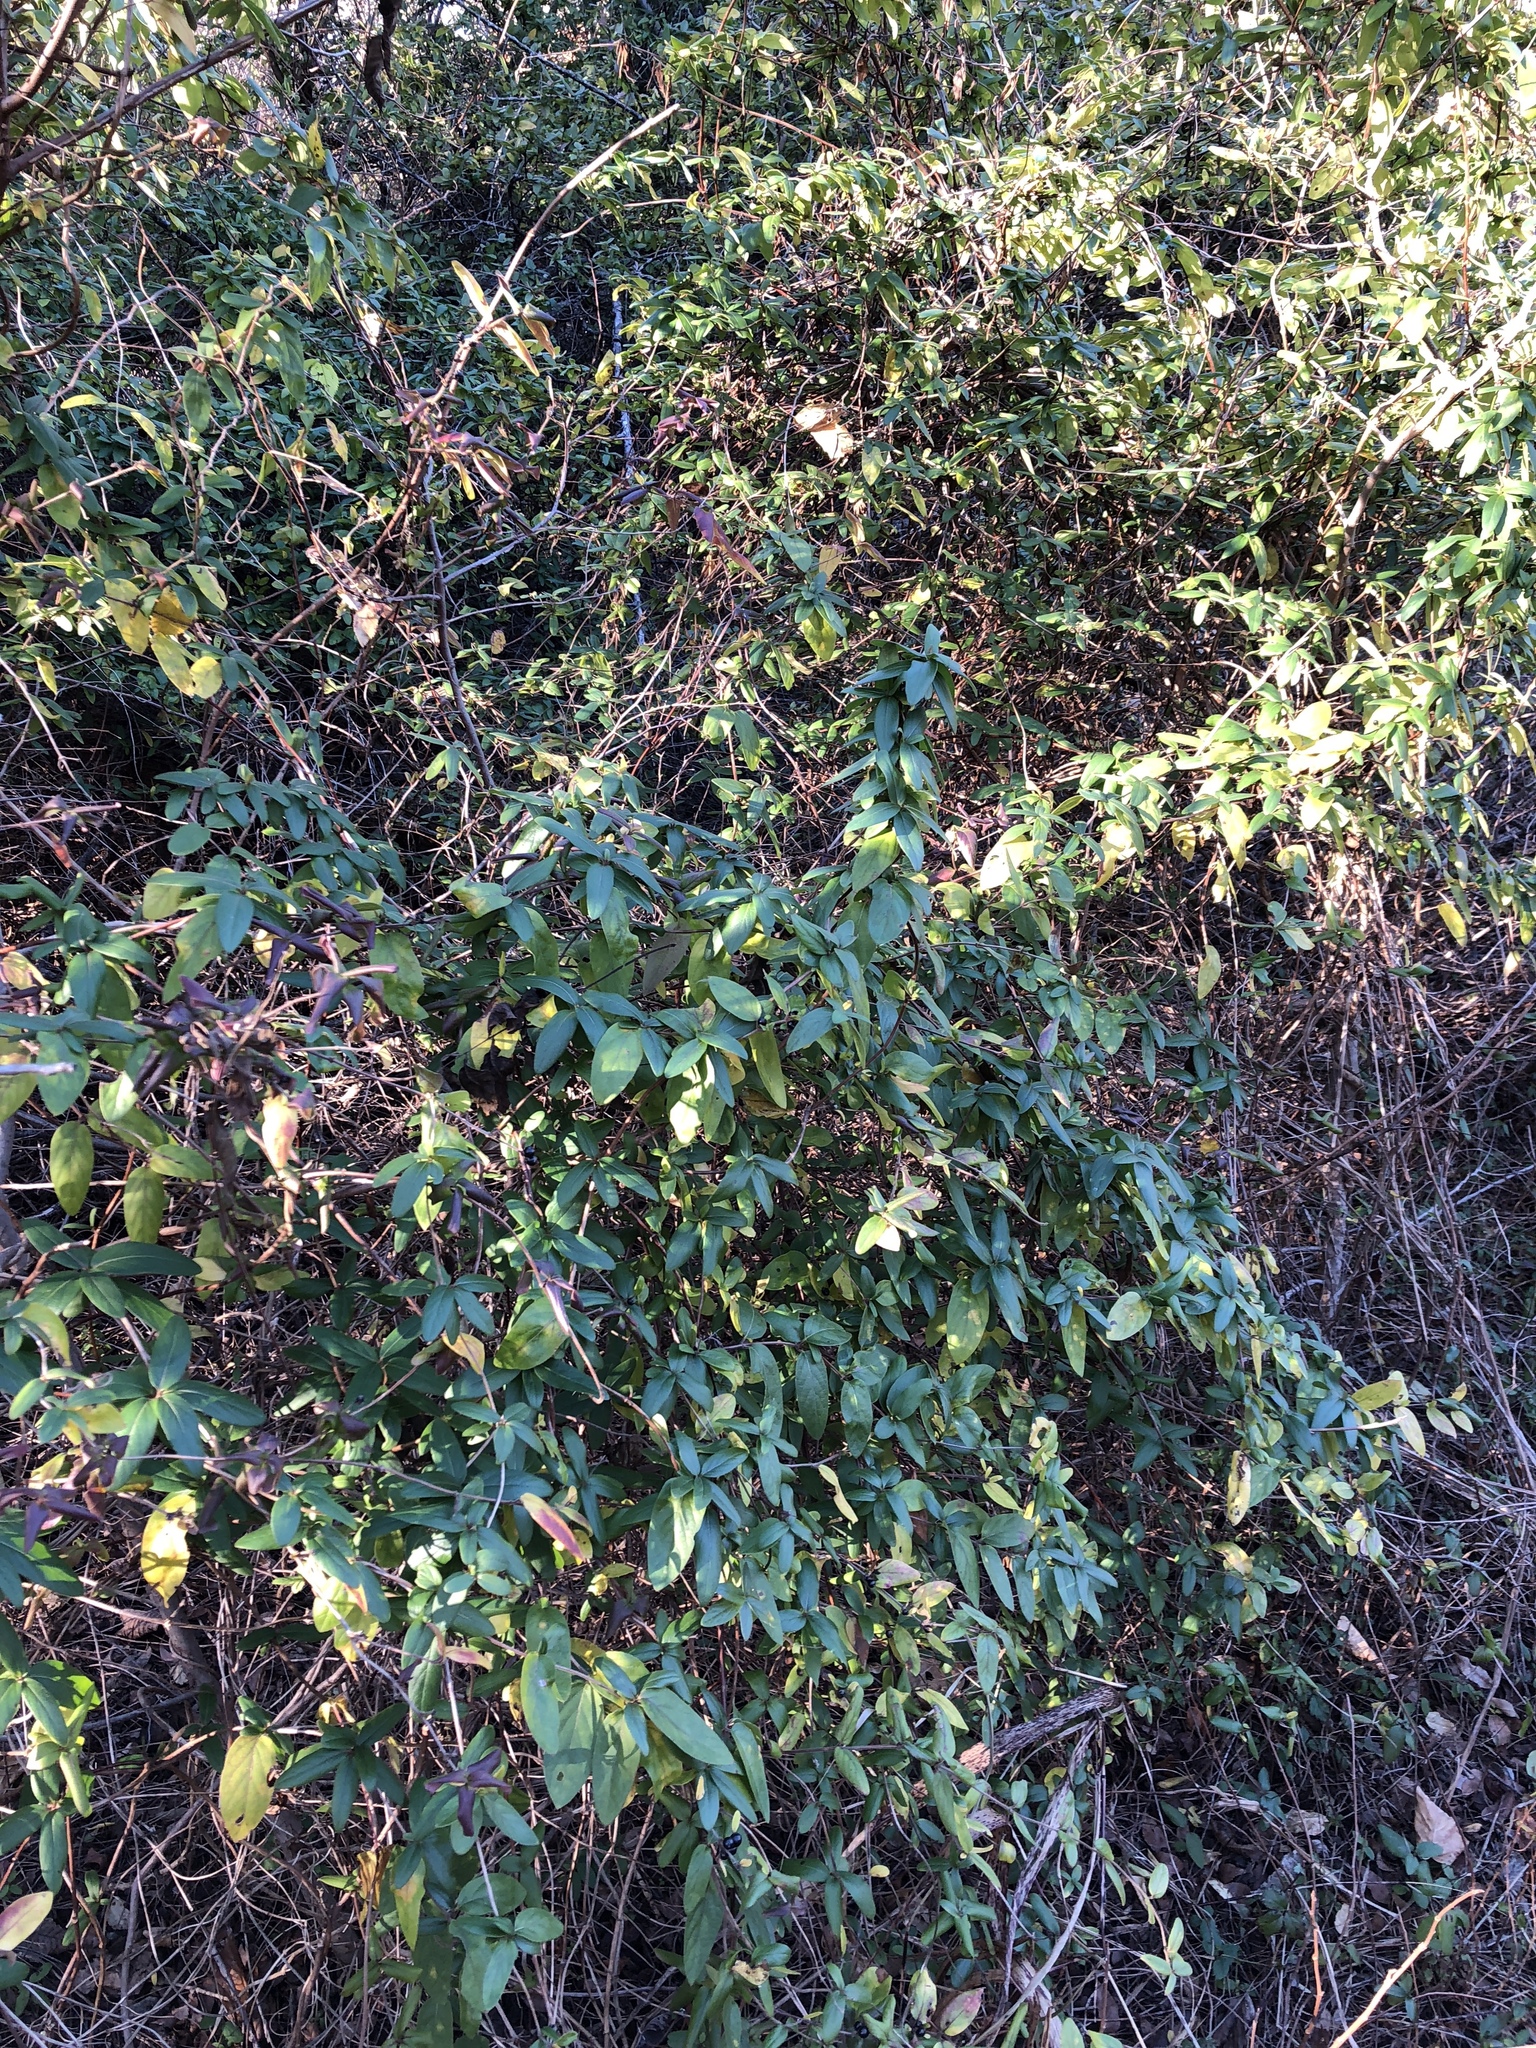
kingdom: Plantae
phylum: Tracheophyta
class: Magnoliopsida
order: Dipsacales
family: Caprifoliaceae
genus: Lonicera
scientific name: Lonicera japonica
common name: Japanese honeysuckle
